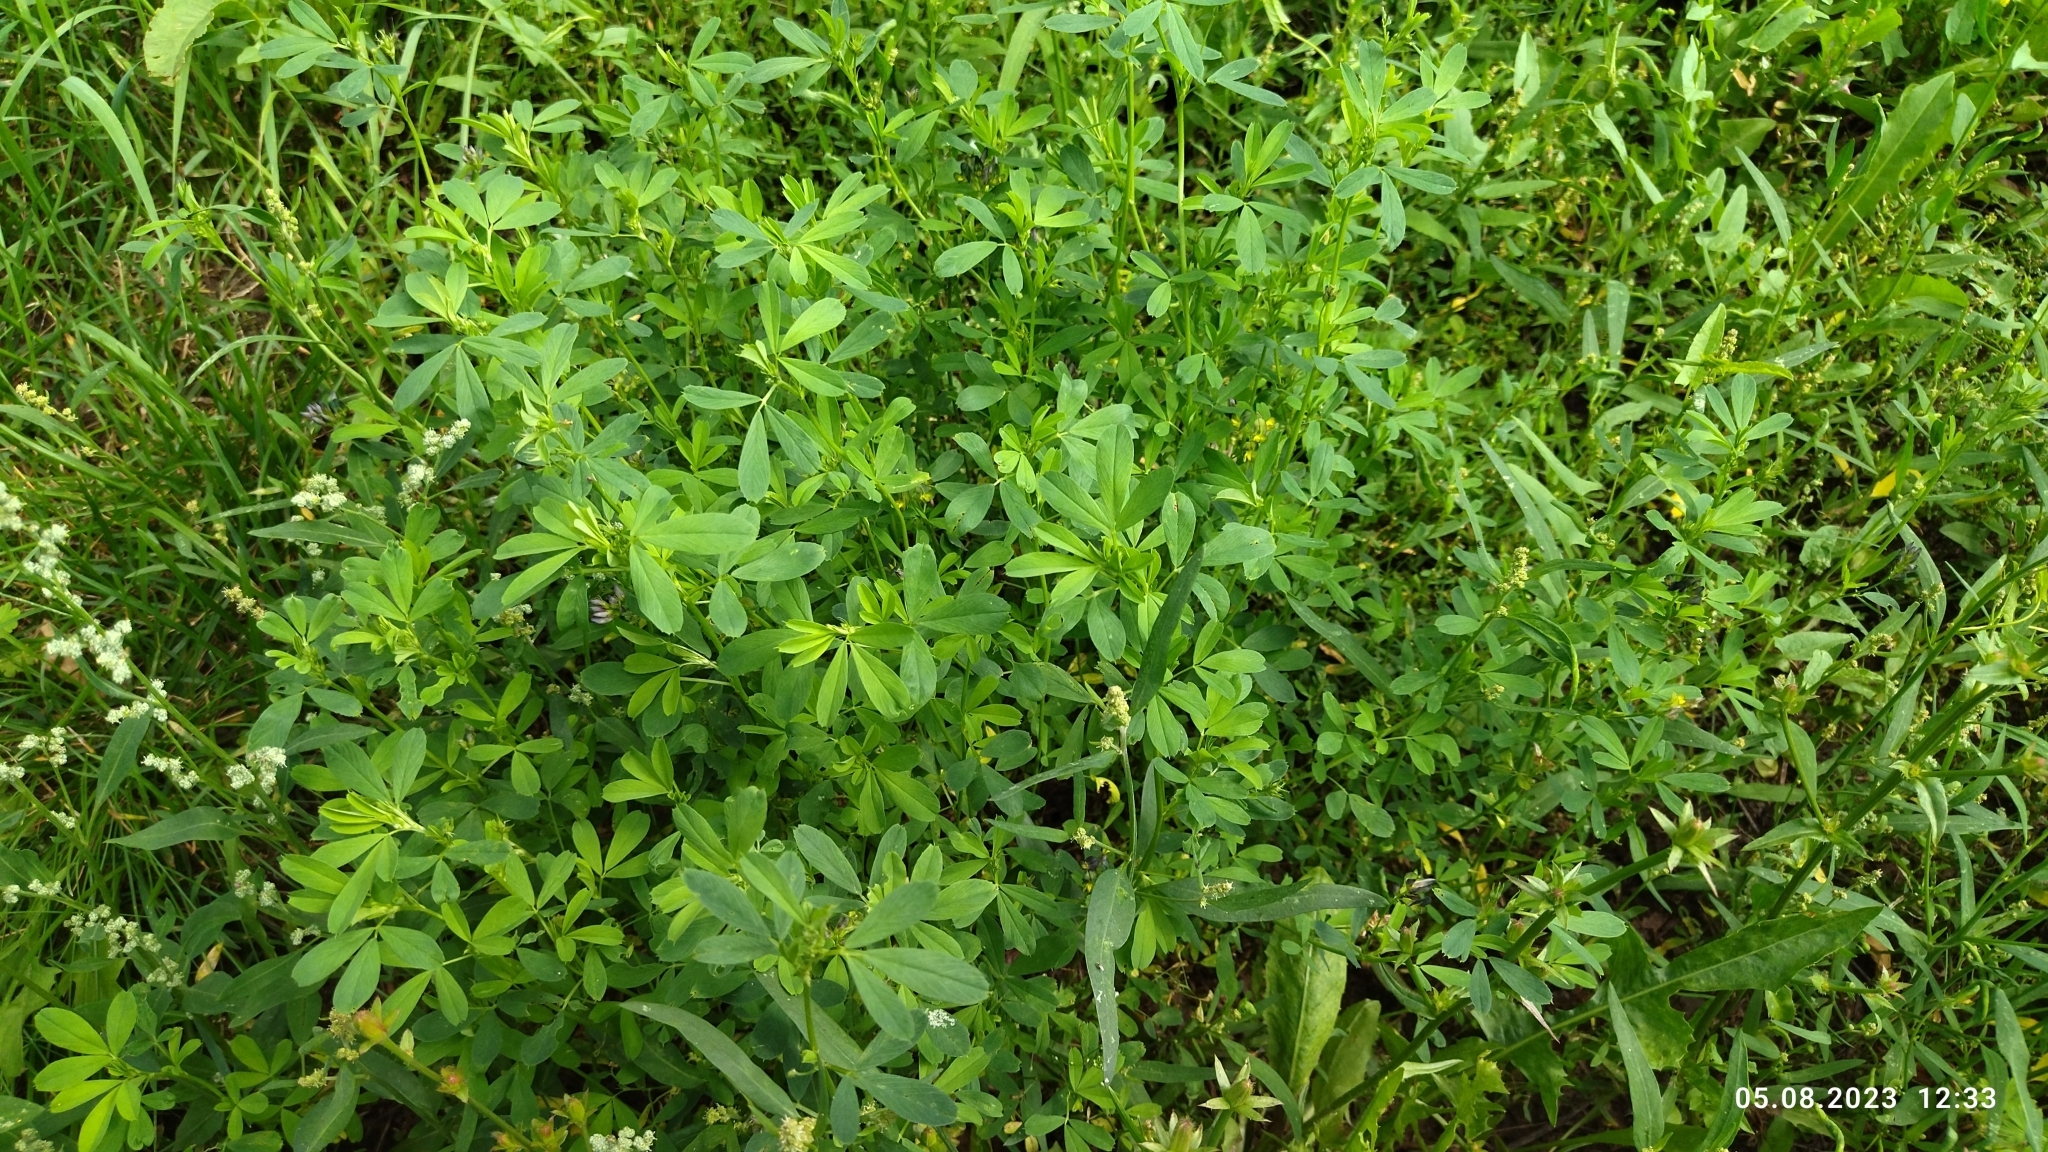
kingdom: Plantae
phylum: Tracheophyta
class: Magnoliopsida
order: Fabales
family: Fabaceae
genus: Medicago
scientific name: Medicago varia
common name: Sand lucerne
